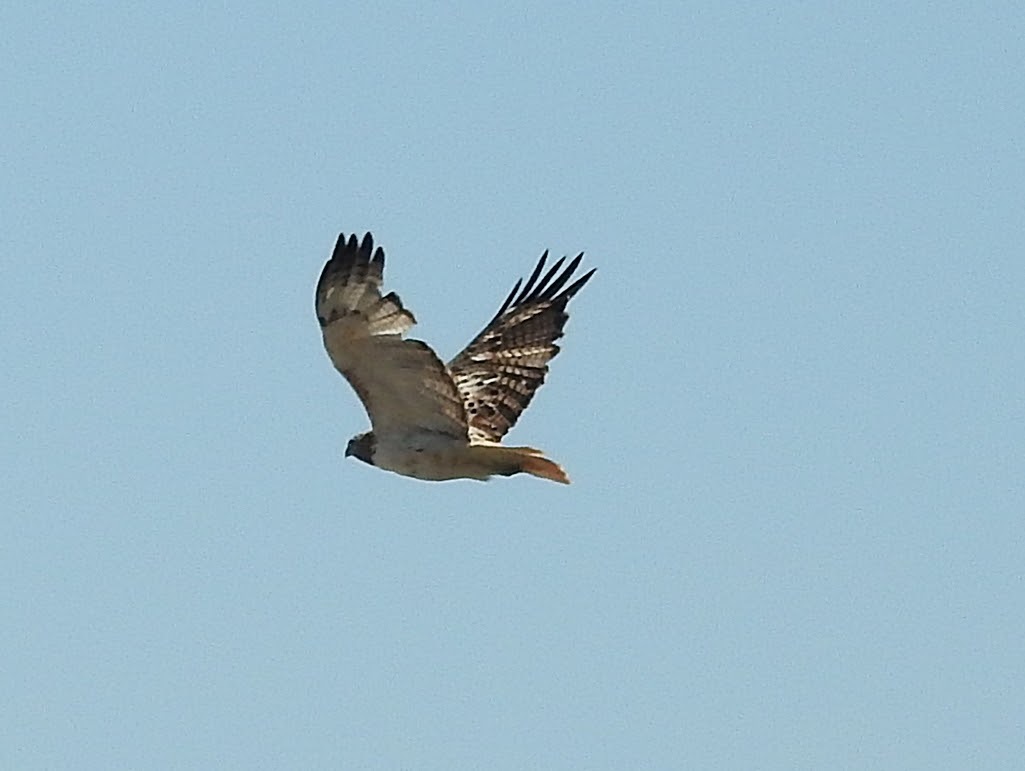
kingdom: Animalia
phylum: Chordata
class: Aves
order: Accipitriformes
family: Accipitridae
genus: Buteo
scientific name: Buteo jamaicensis
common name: Red-tailed hawk
